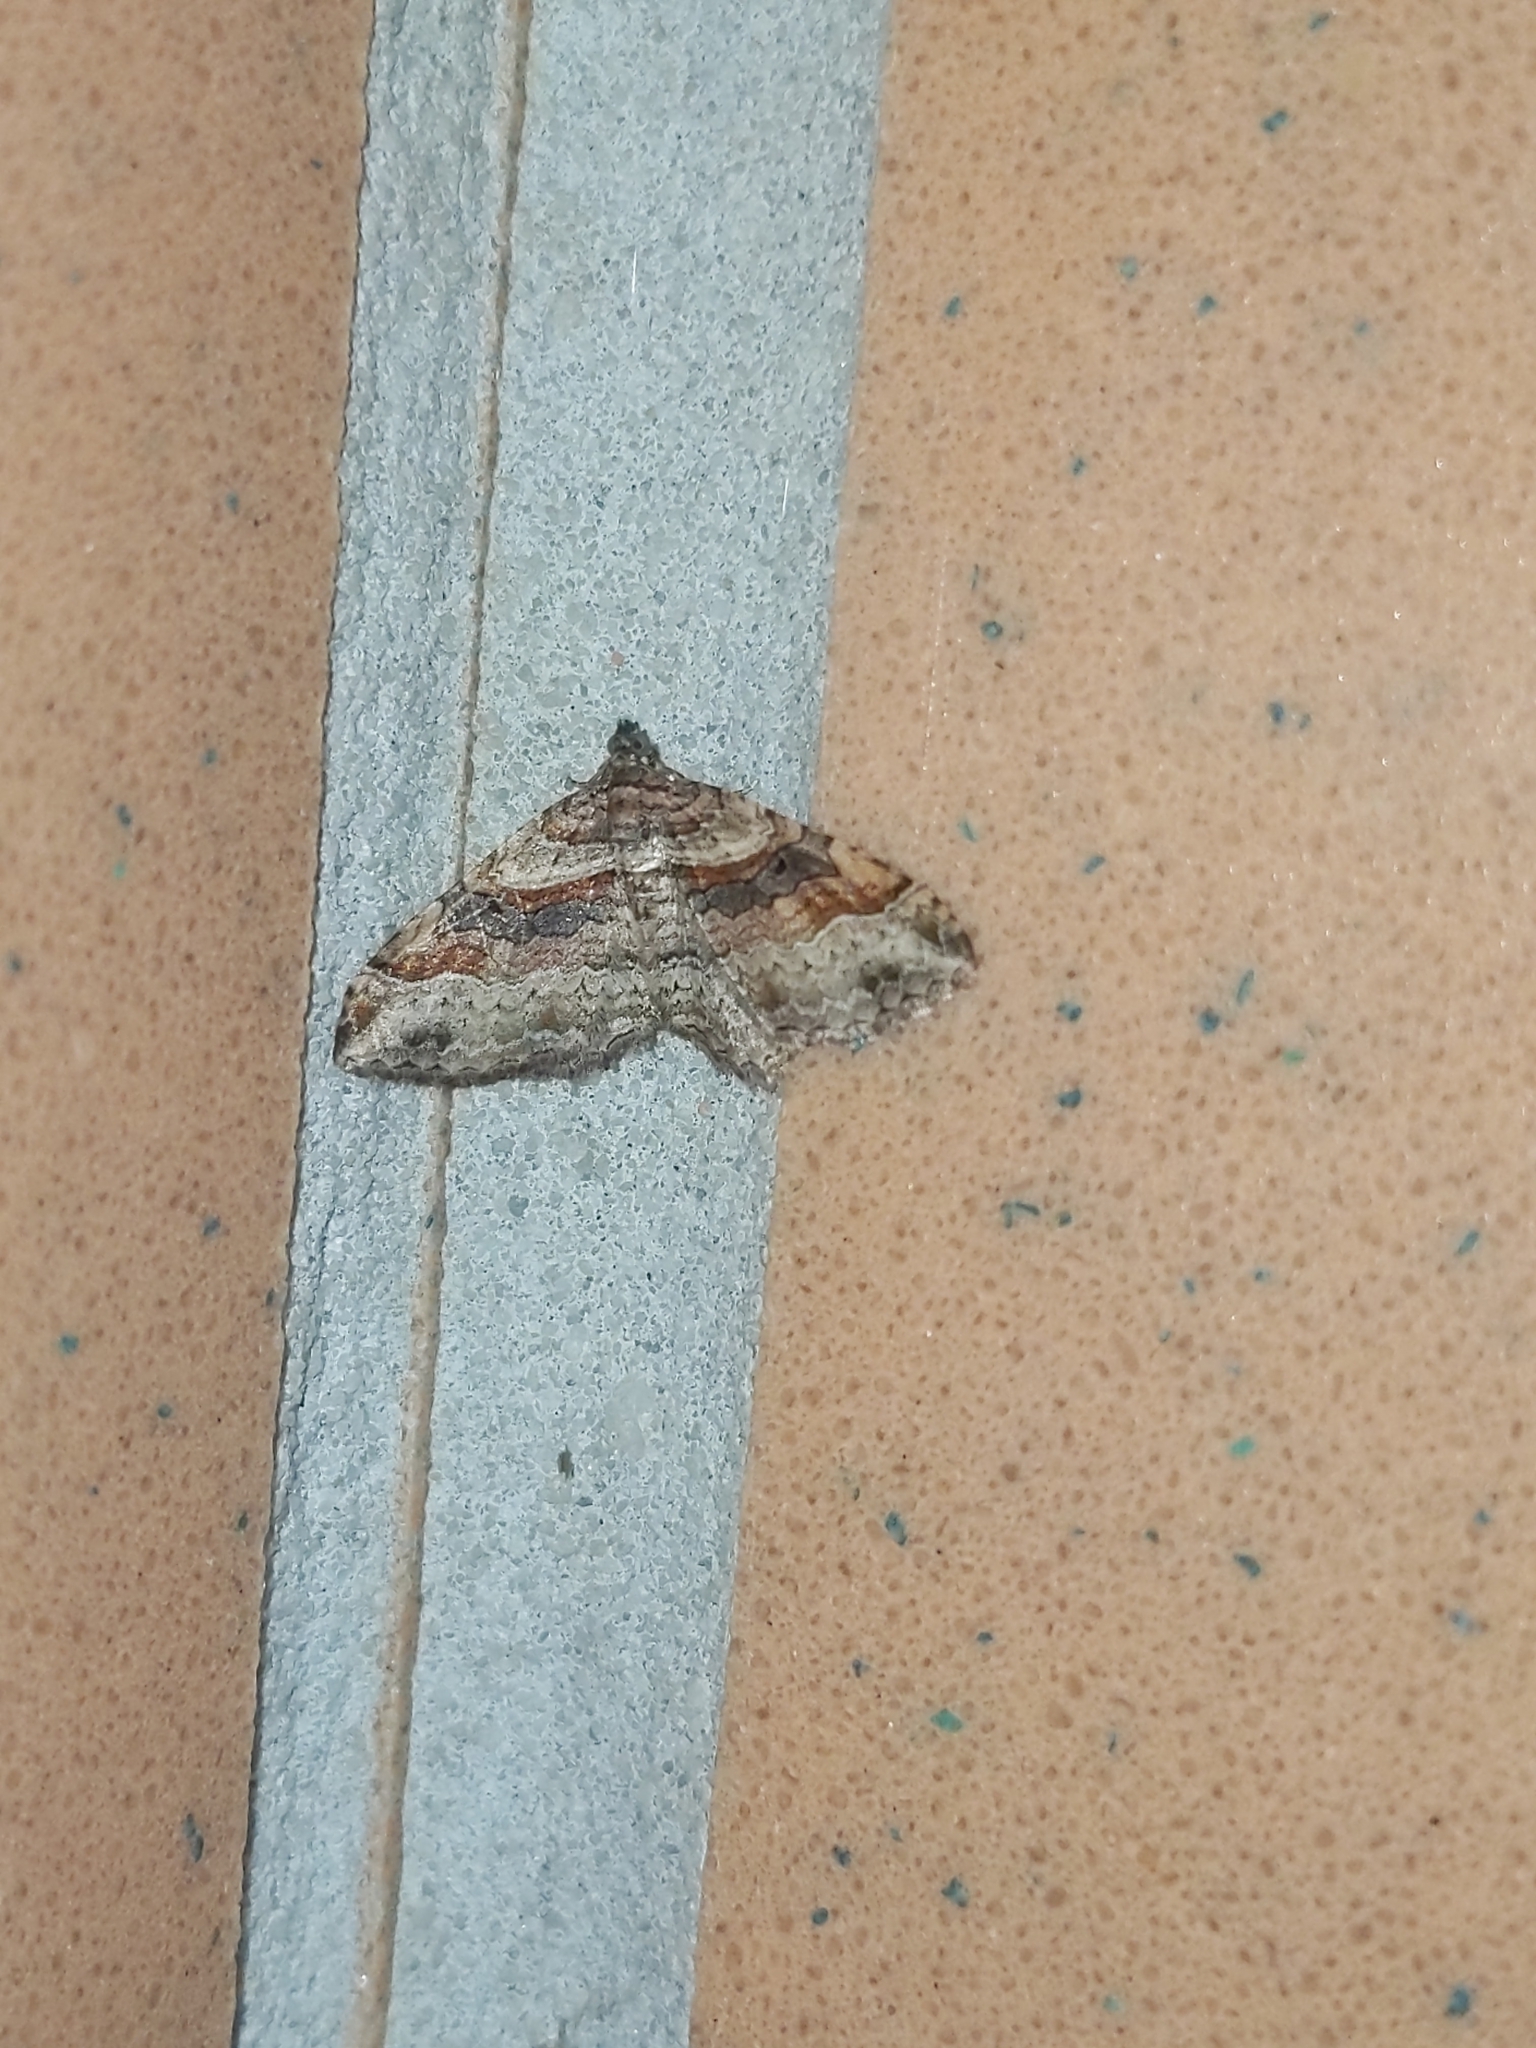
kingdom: Animalia
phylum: Arthropoda
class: Insecta
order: Lepidoptera
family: Geometridae
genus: Costaconvexa
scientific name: Costaconvexa centrostrigaria
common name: Bent-line carpet
